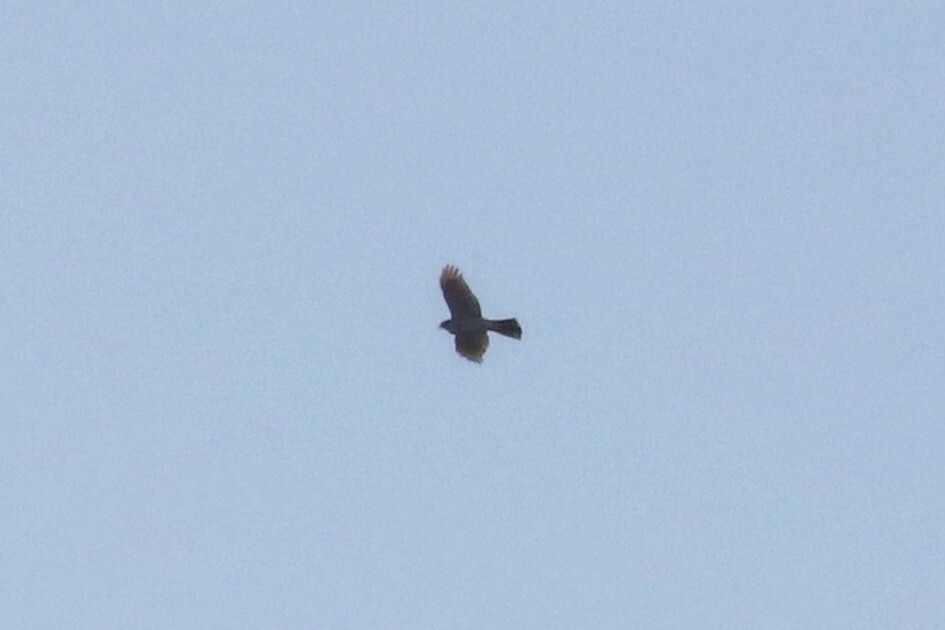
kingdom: Animalia
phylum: Chordata
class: Aves
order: Accipitriformes
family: Accipitridae
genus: Accipiter
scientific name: Accipiter nisus
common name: Eurasian sparrowhawk
